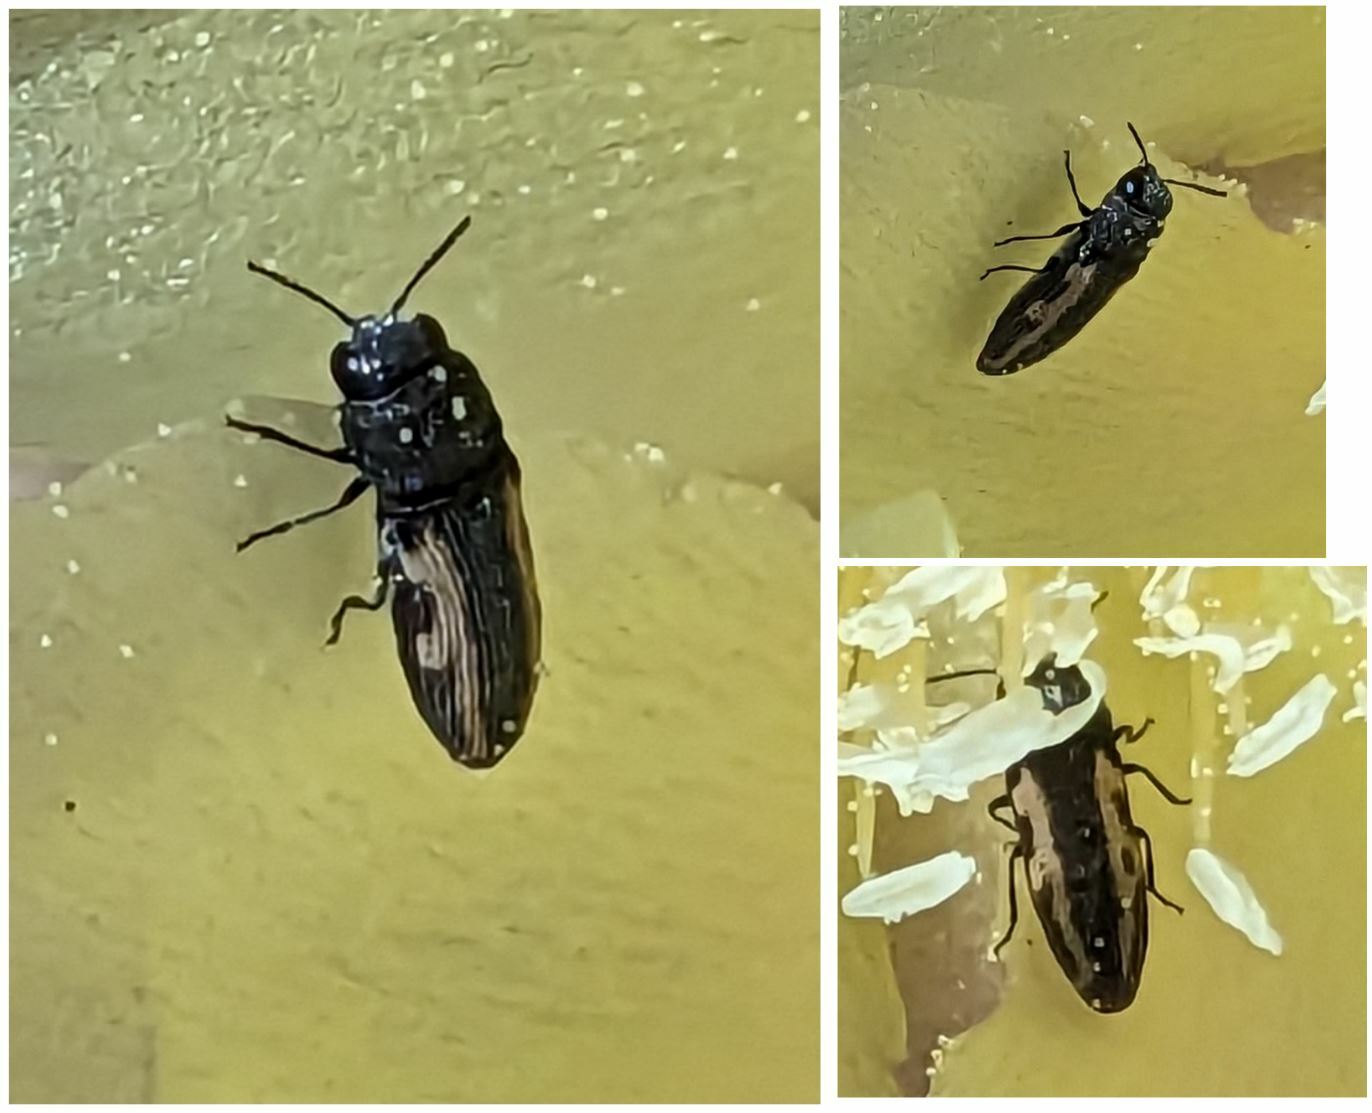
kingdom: Animalia
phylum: Arthropoda
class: Insecta
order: Coleoptera
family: Buprestidae
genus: Acmaeodera
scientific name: Acmaeodera ligulata
